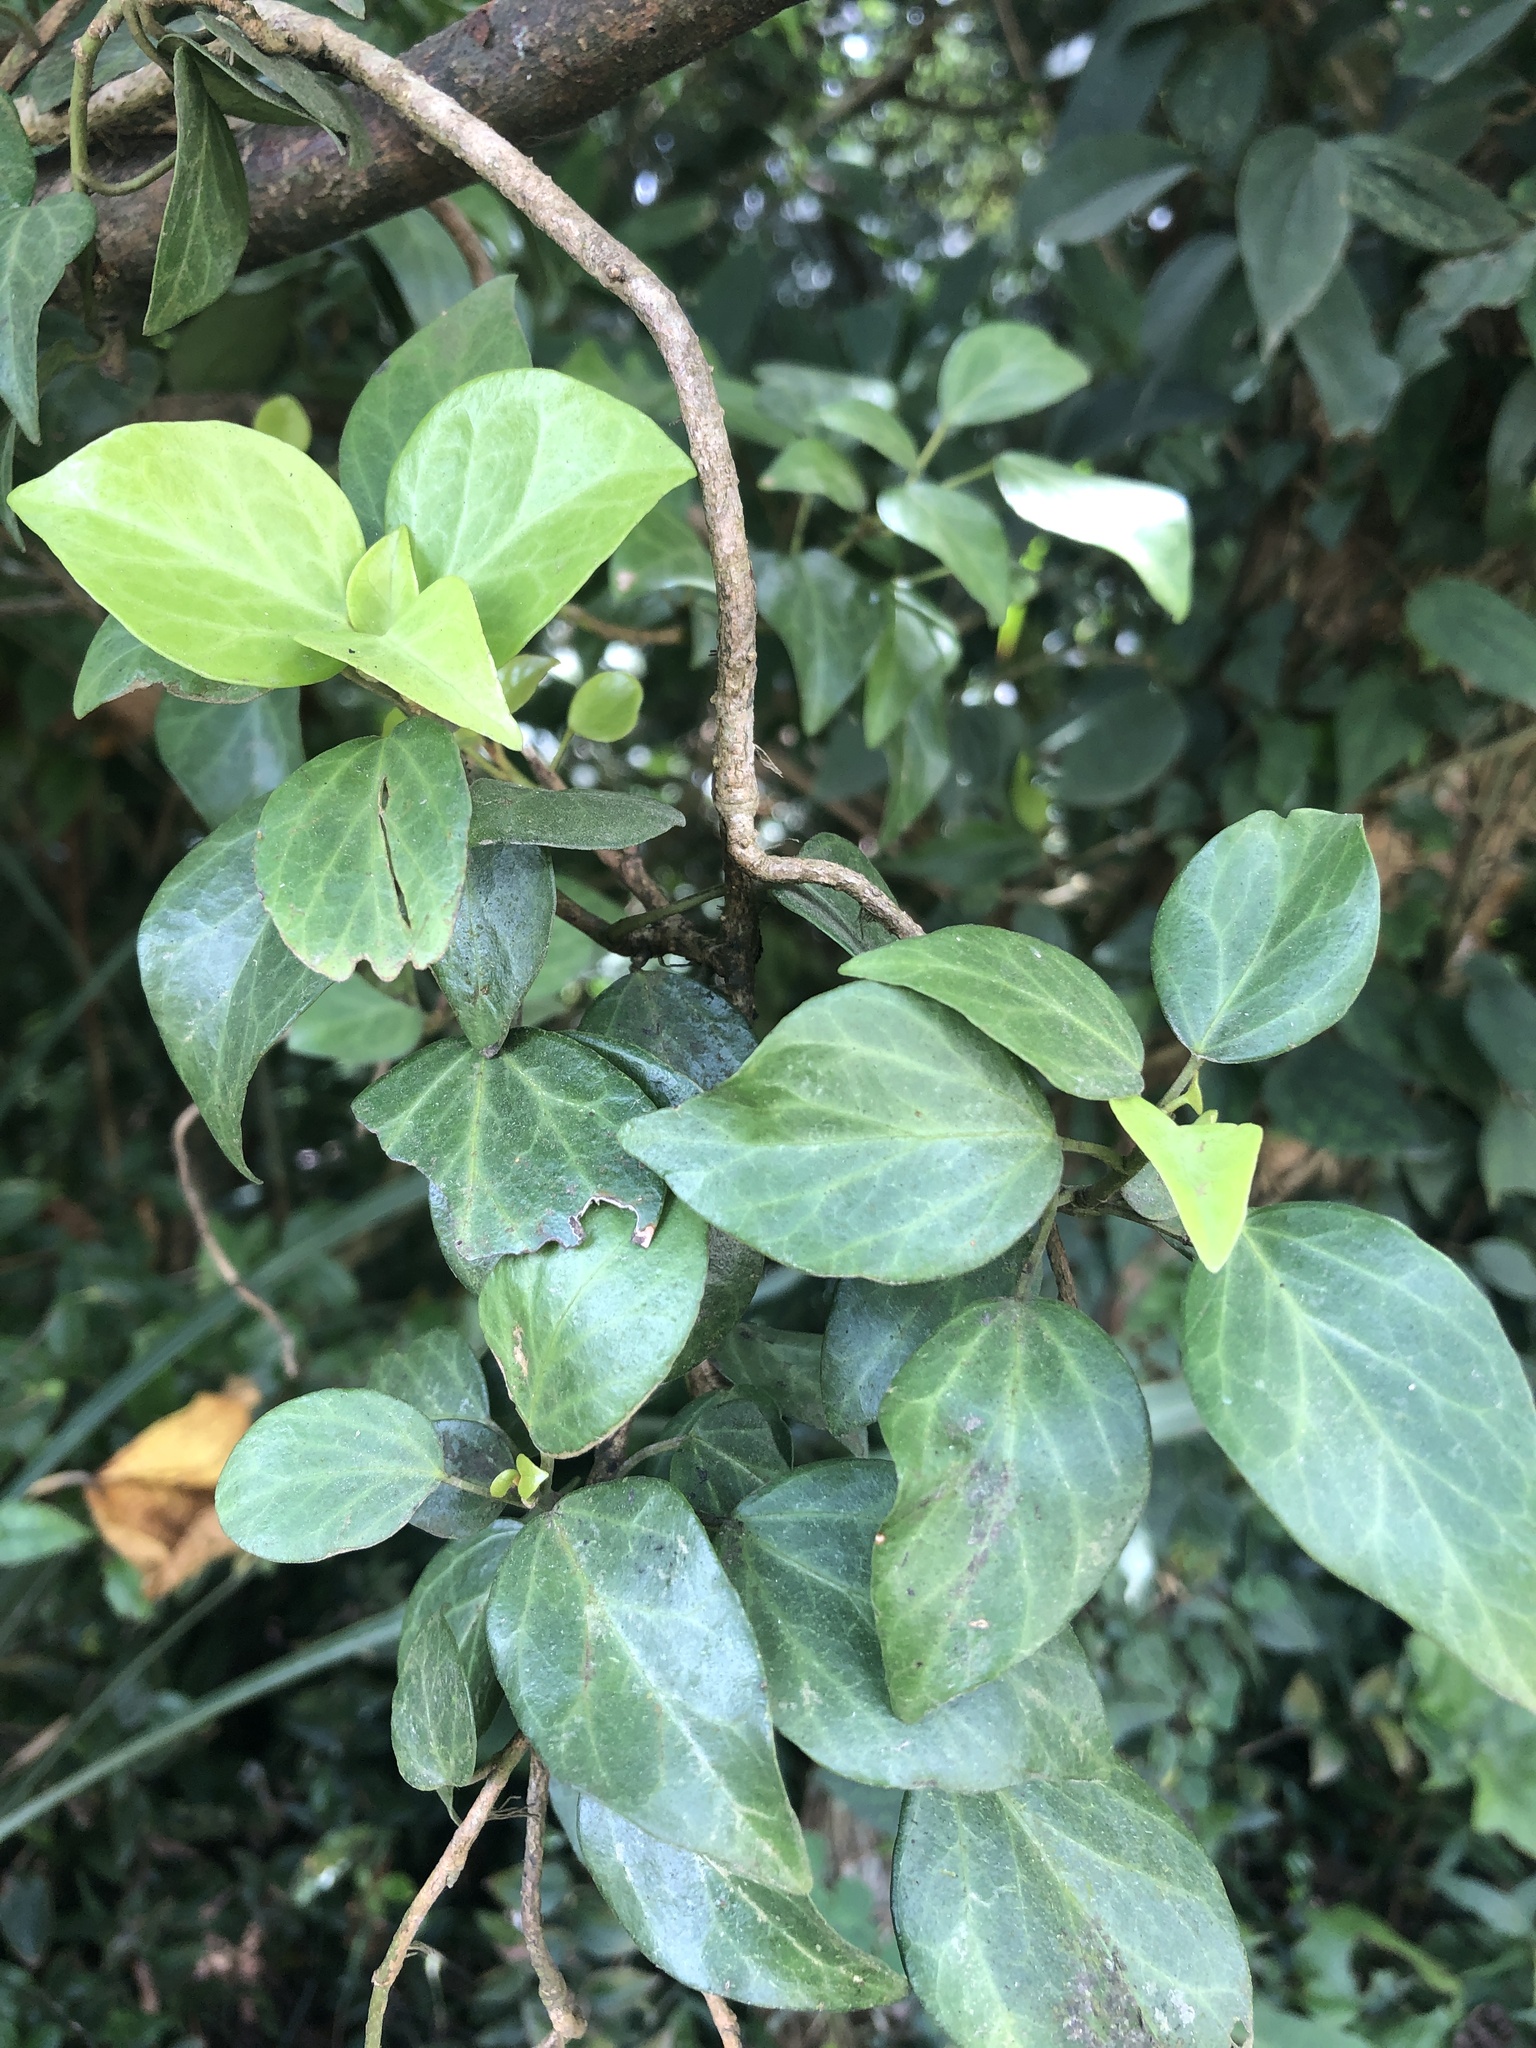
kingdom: Plantae
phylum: Tracheophyta
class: Magnoliopsida
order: Apiales
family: Araliaceae
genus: Hedera
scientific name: Hedera rhombea
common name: Japanese ivy
